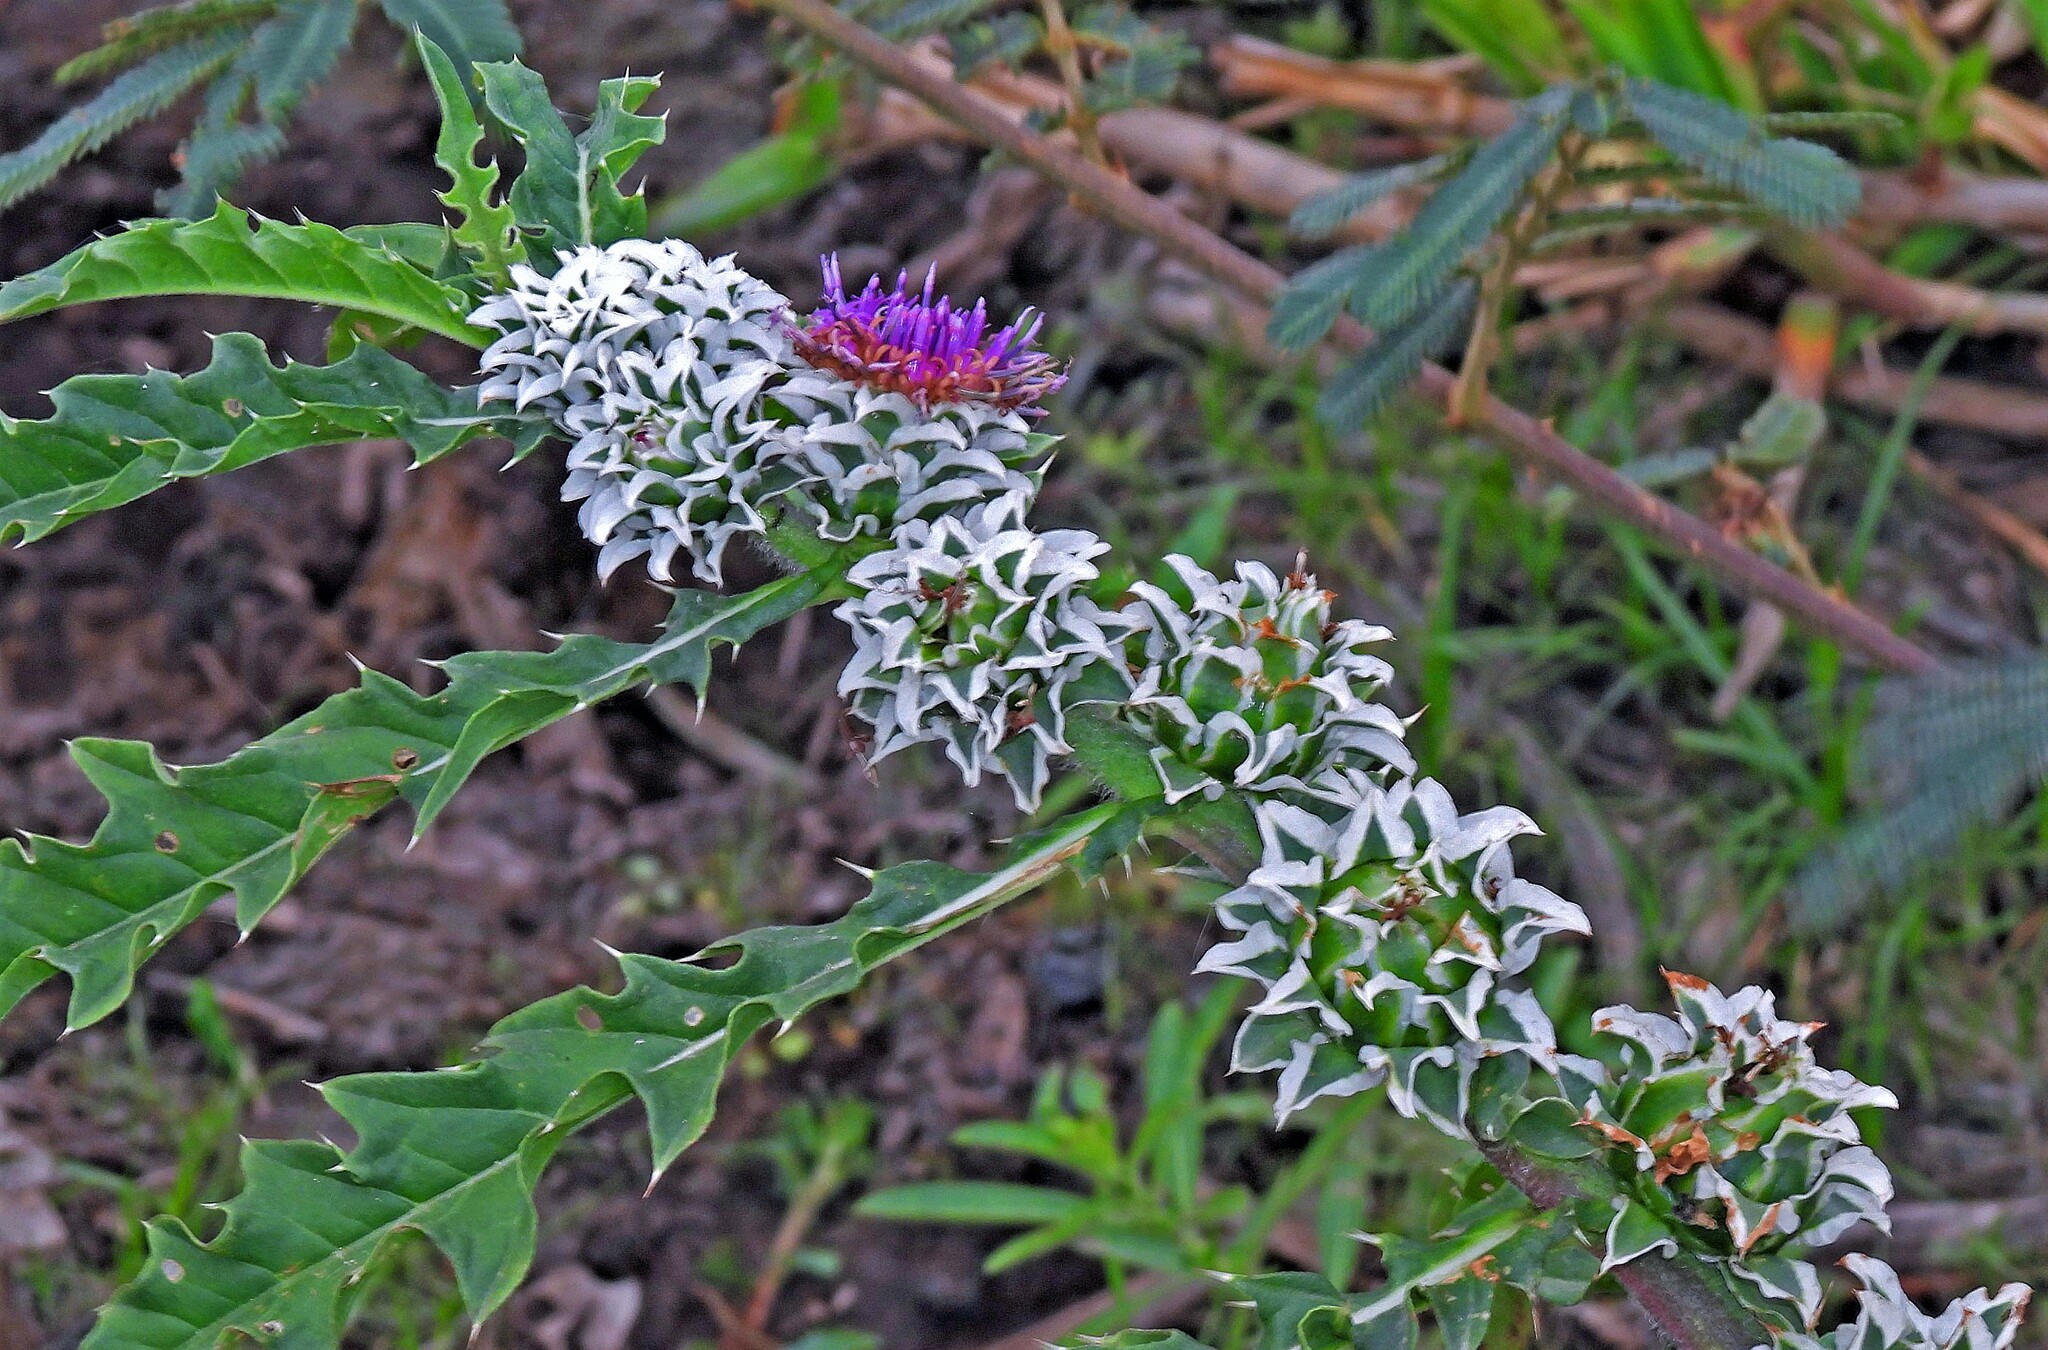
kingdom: Plantae
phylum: Tracheophyta
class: Magnoliopsida
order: Asterales
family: Asteraceae
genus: Pacourina
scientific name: Pacourina edulis
